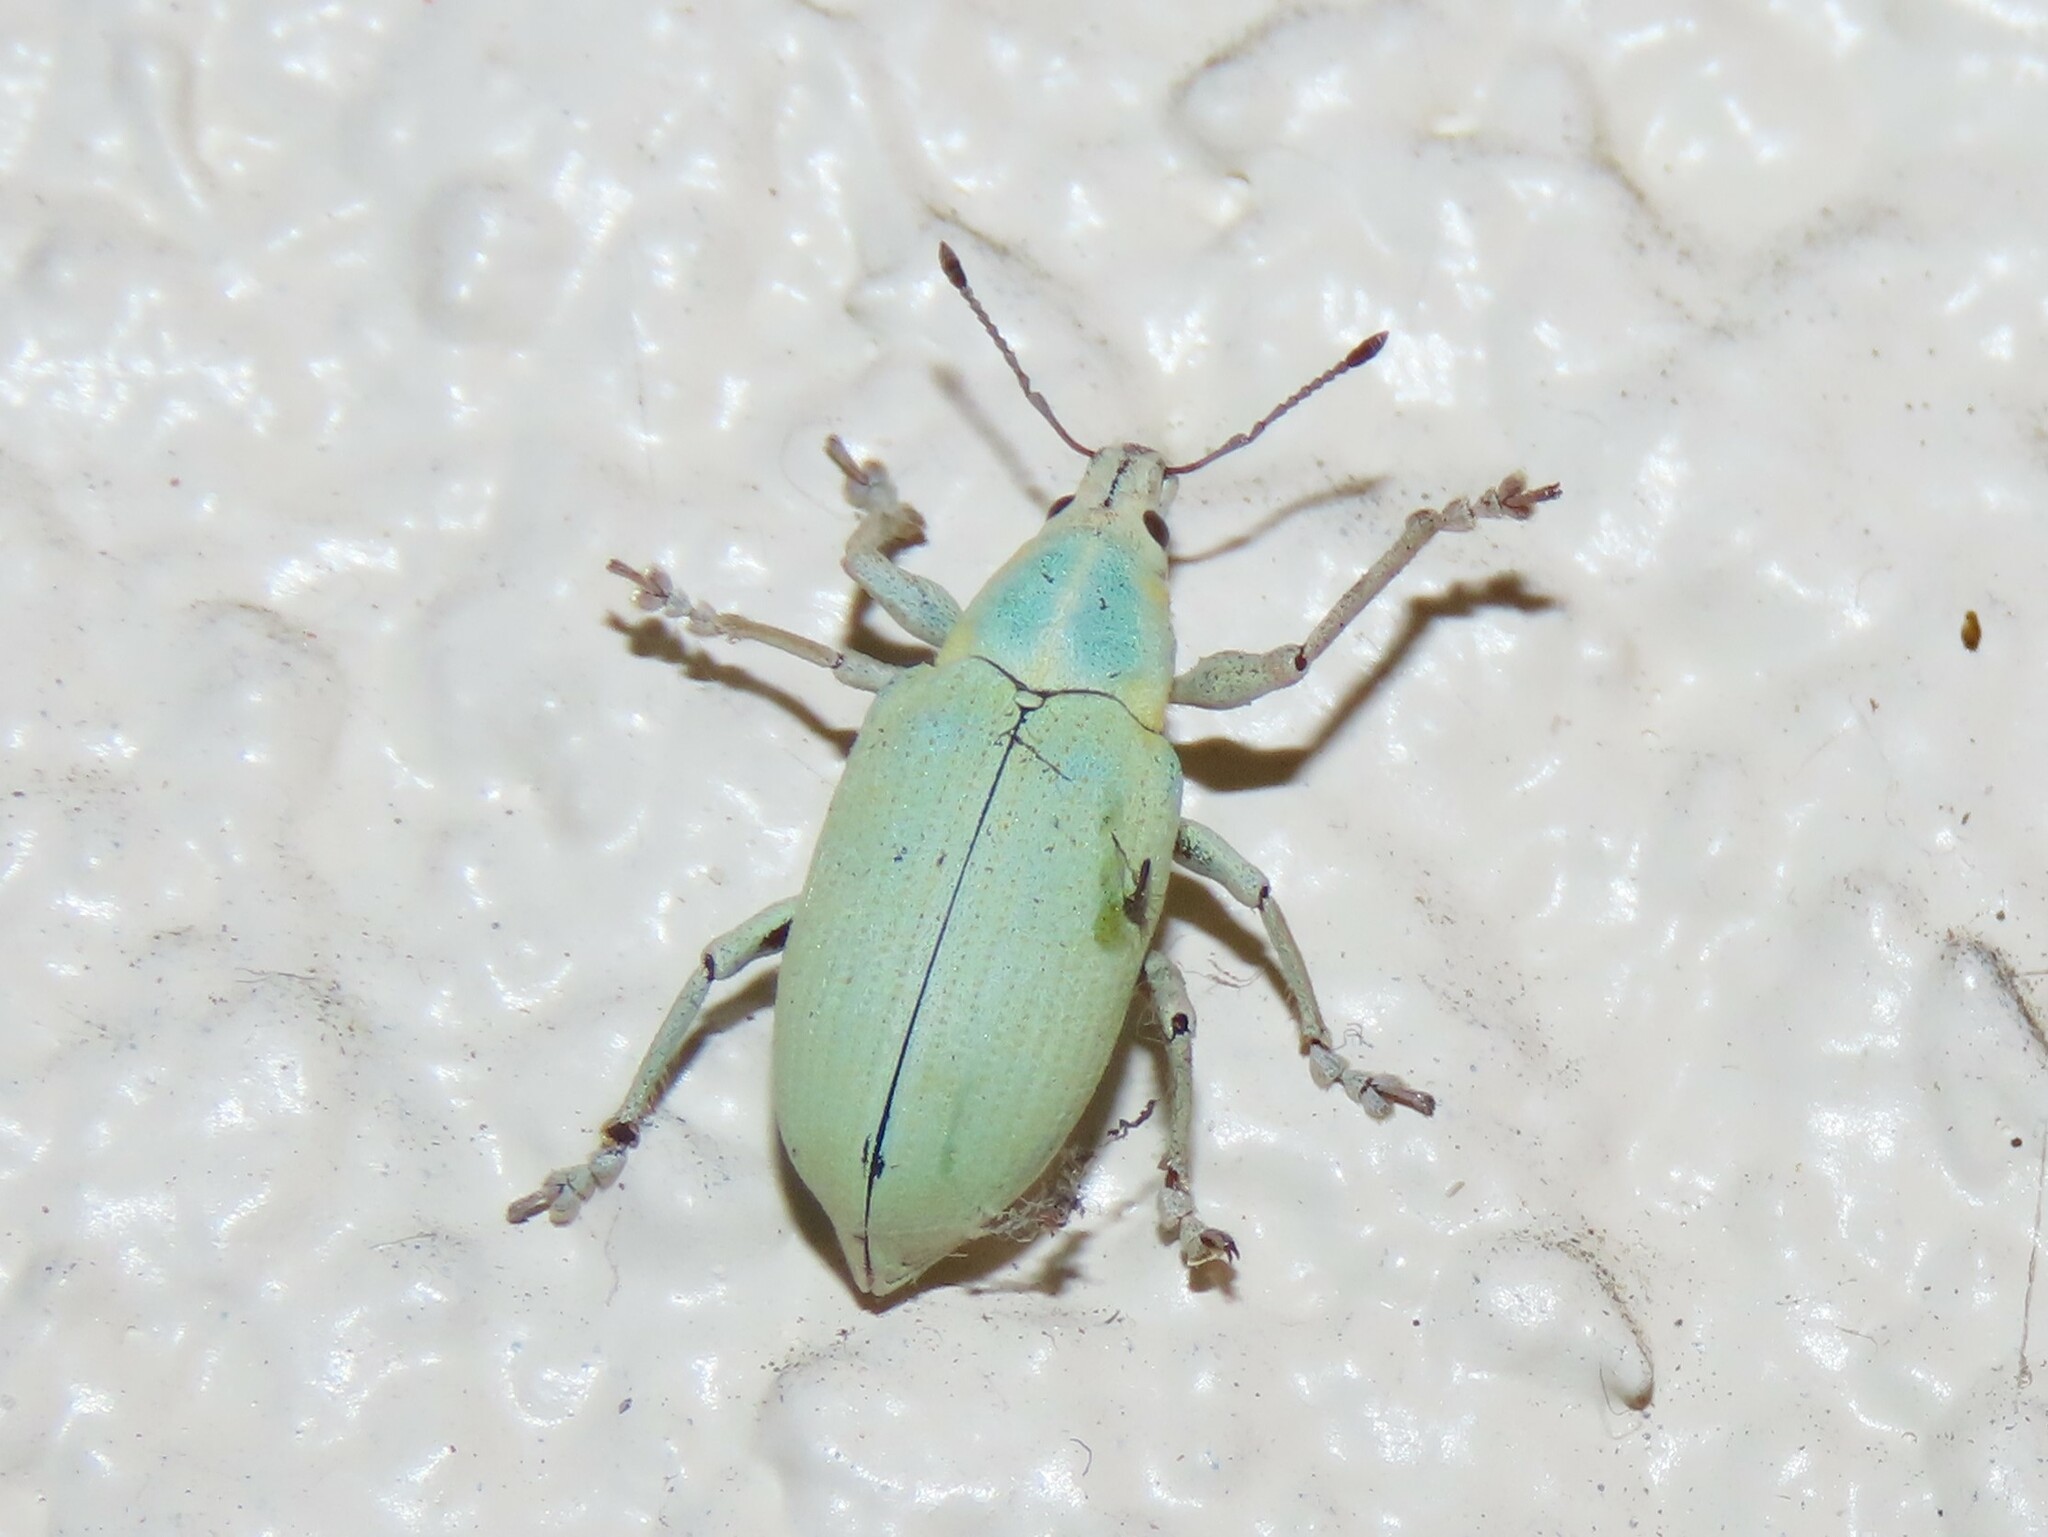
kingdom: Animalia
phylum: Arthropoda
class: Insecta
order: Coleoptera
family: Curculionidae
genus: Pachnaeus
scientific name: Pachnaeus litus
